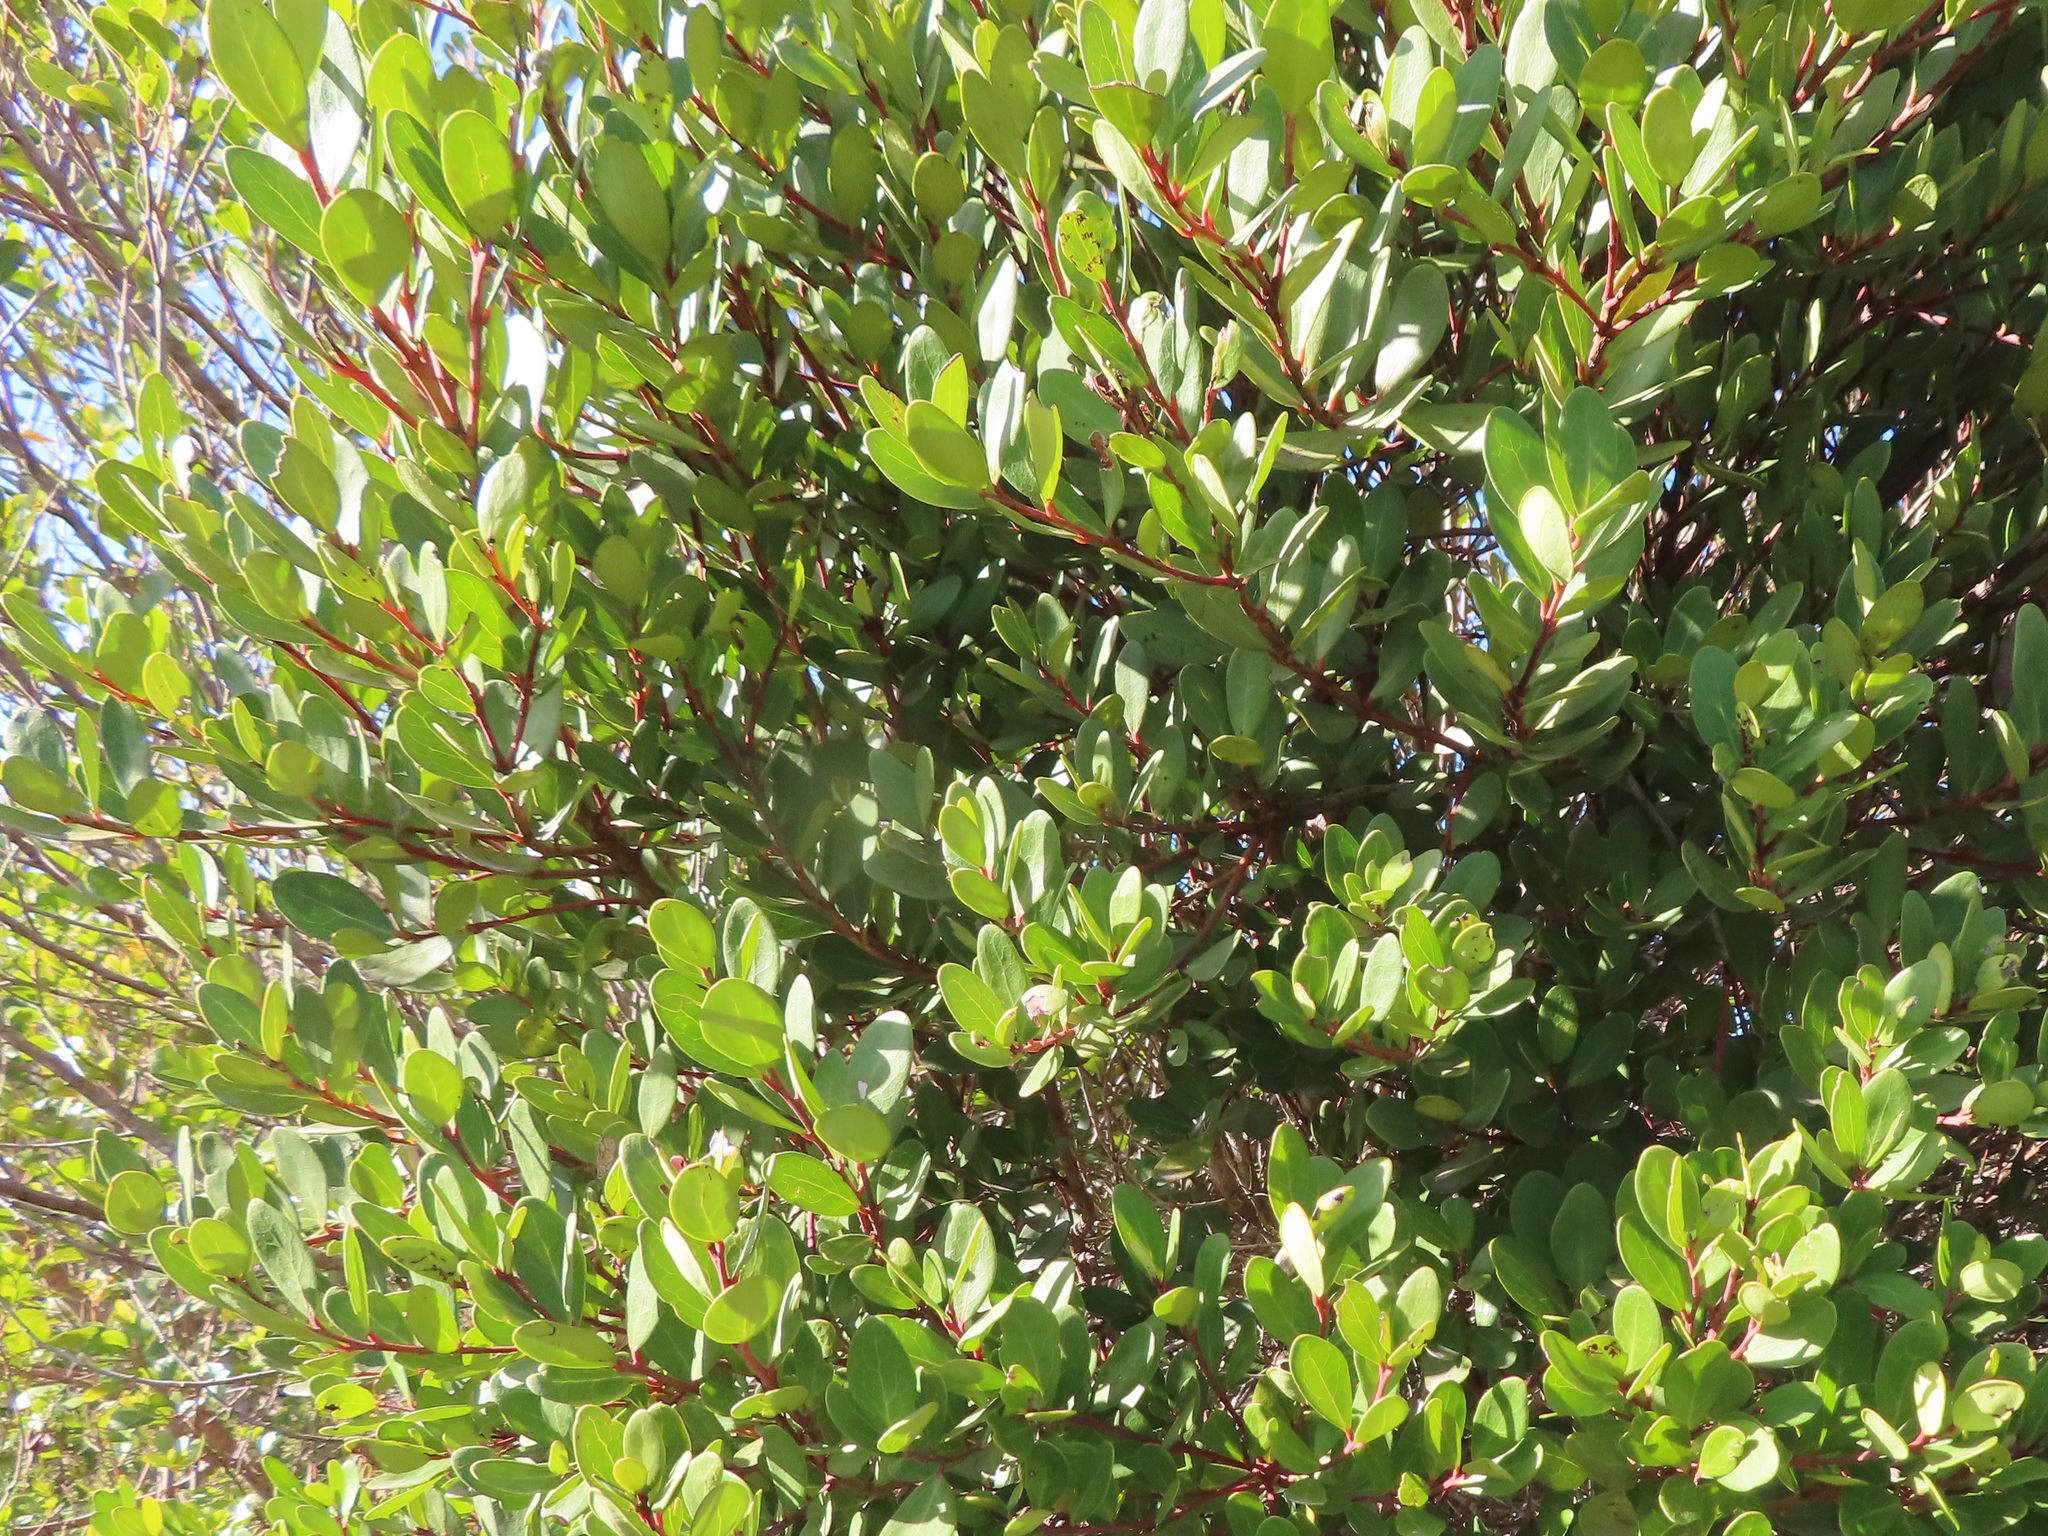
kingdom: Plantae
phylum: Tracheophyta
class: Magnoliopsida
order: Ericales
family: Ebenaceae
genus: Euclea
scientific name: Euclea racemosa
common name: Dune guarri
